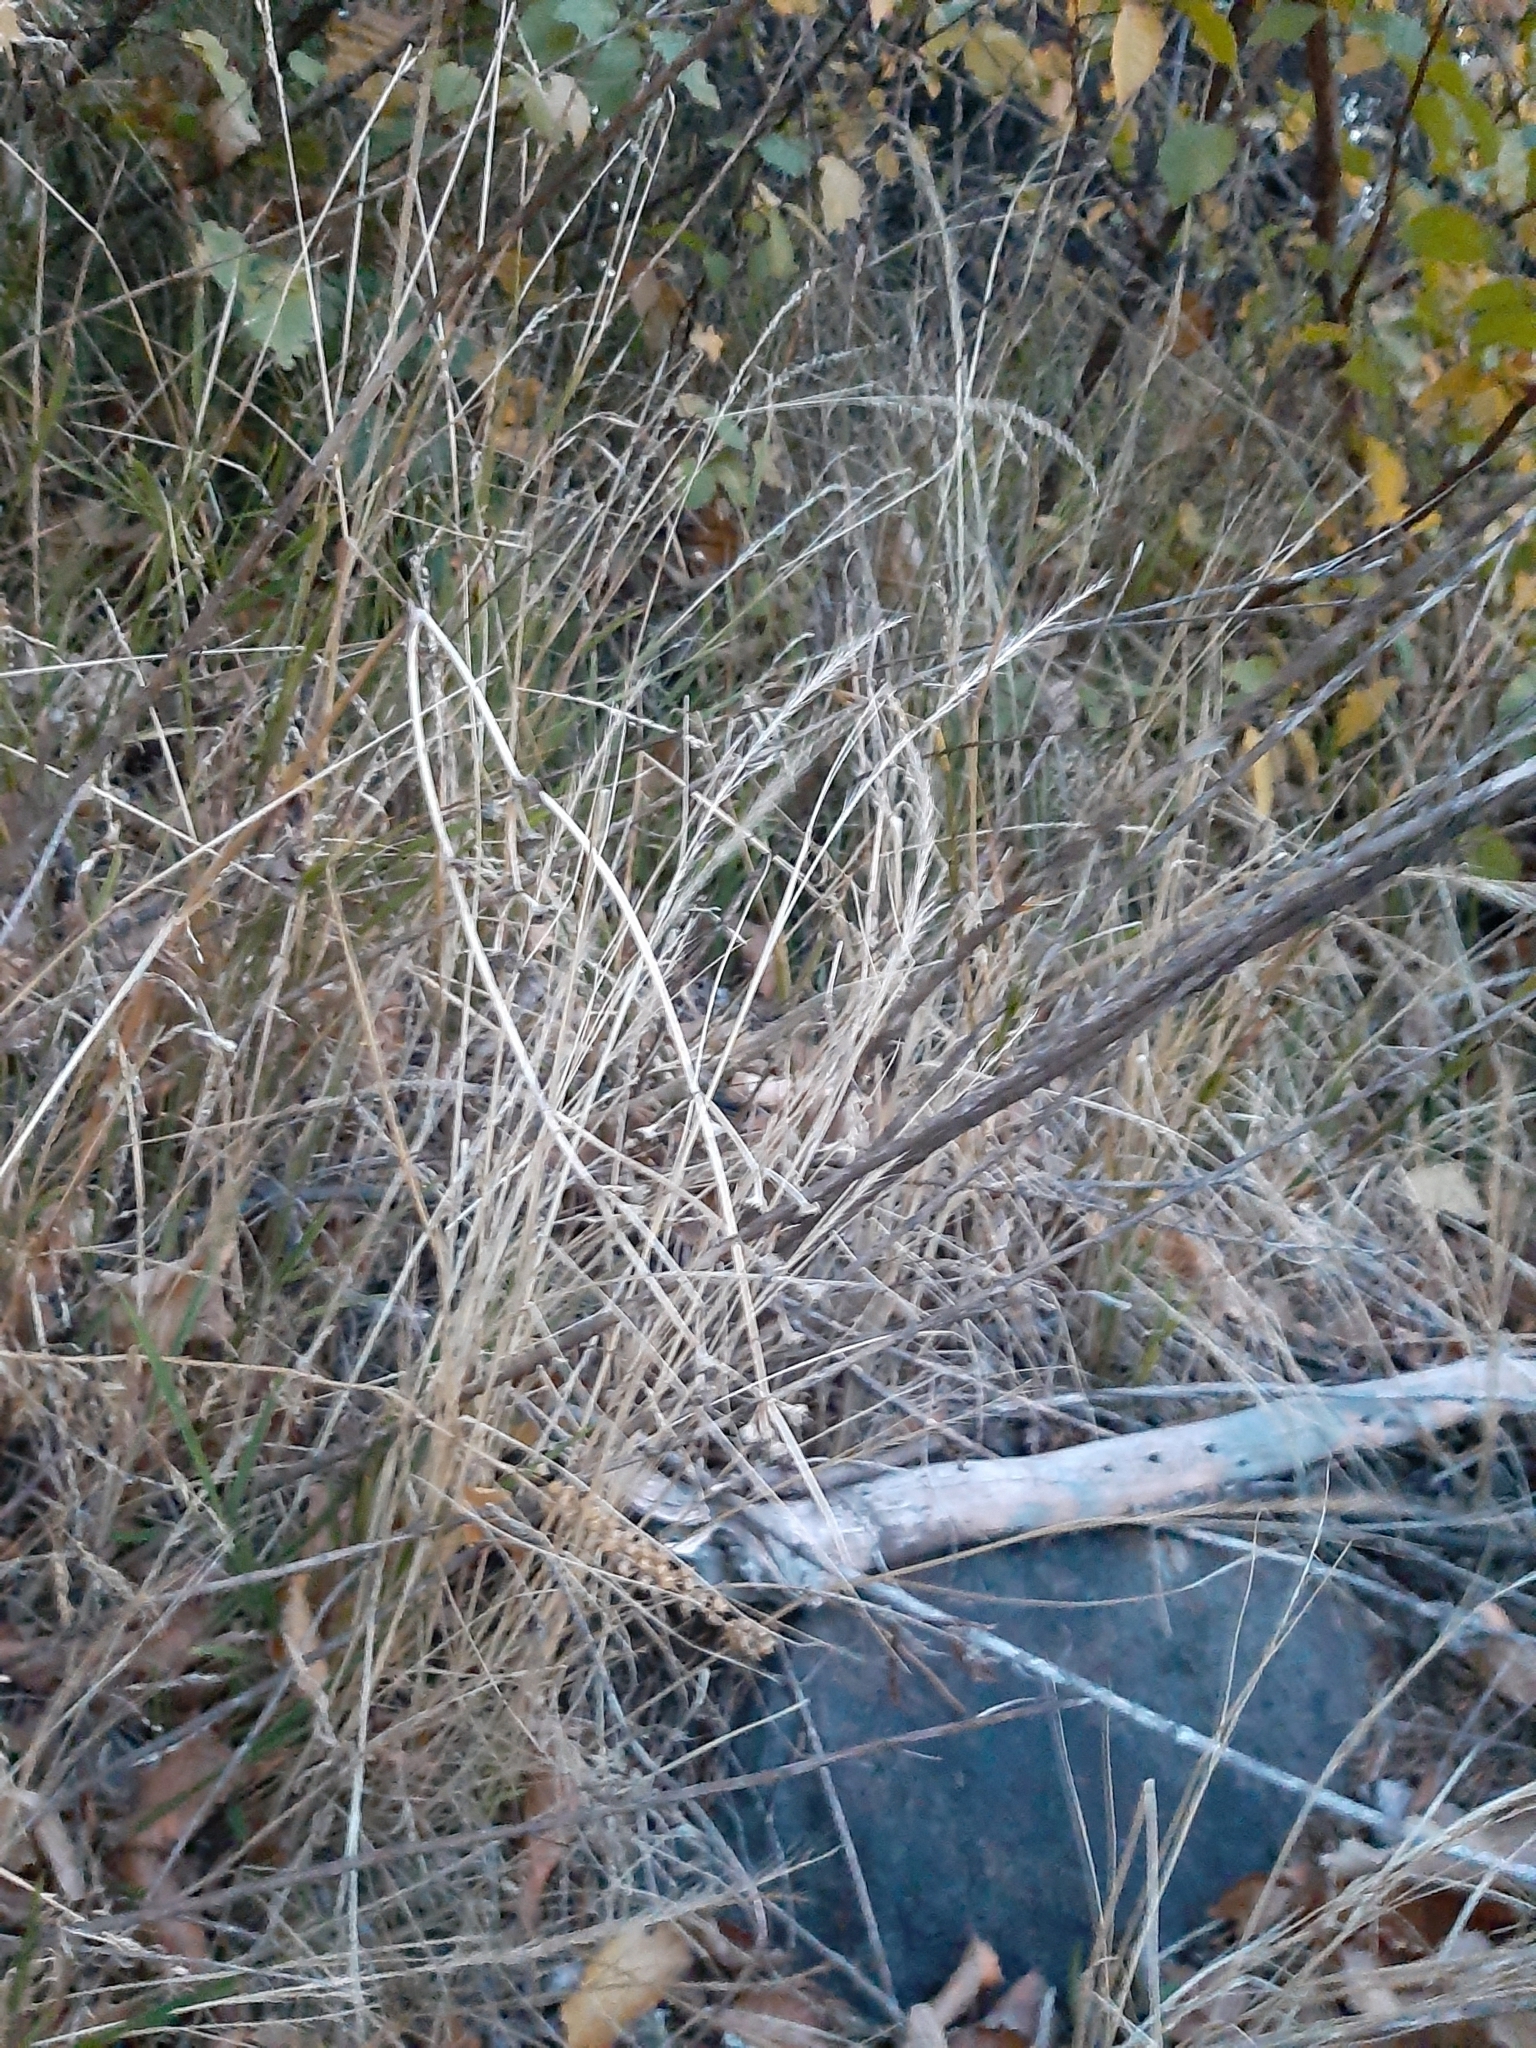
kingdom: Plantae
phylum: Tracheophyta
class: Liliopsida
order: Poales
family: Poaceae
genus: Festuca
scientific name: Festuca myuros
